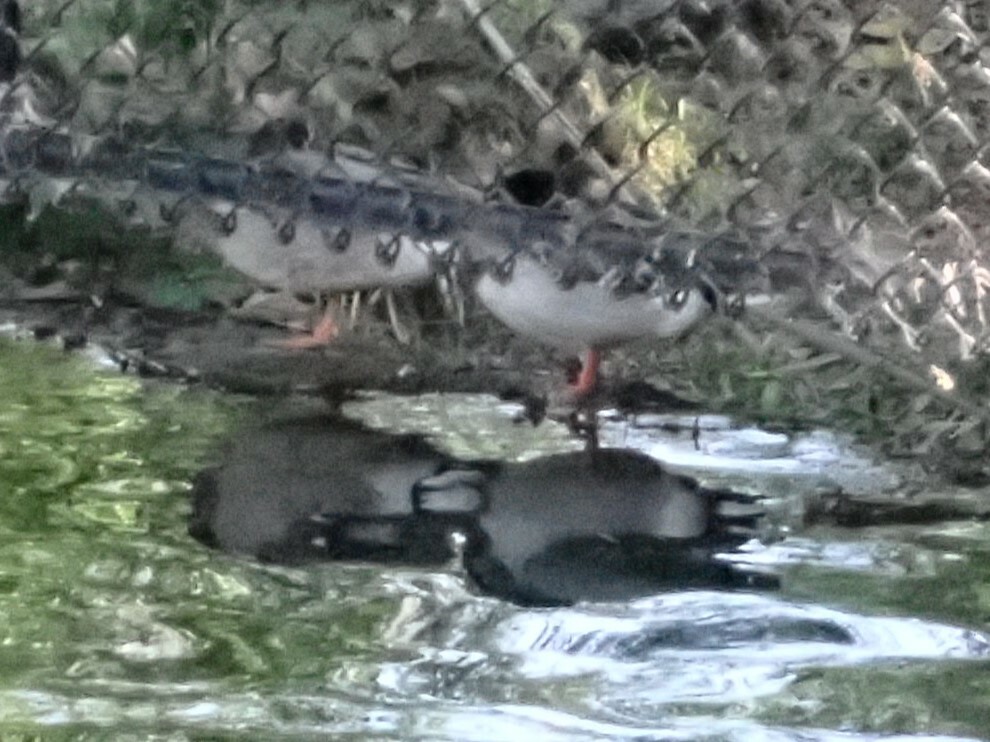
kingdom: Animalia
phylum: Chordata
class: Aves
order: Anseriformes
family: Anatidae
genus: Anas
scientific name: Anas platyrhynchos
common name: Mallard
